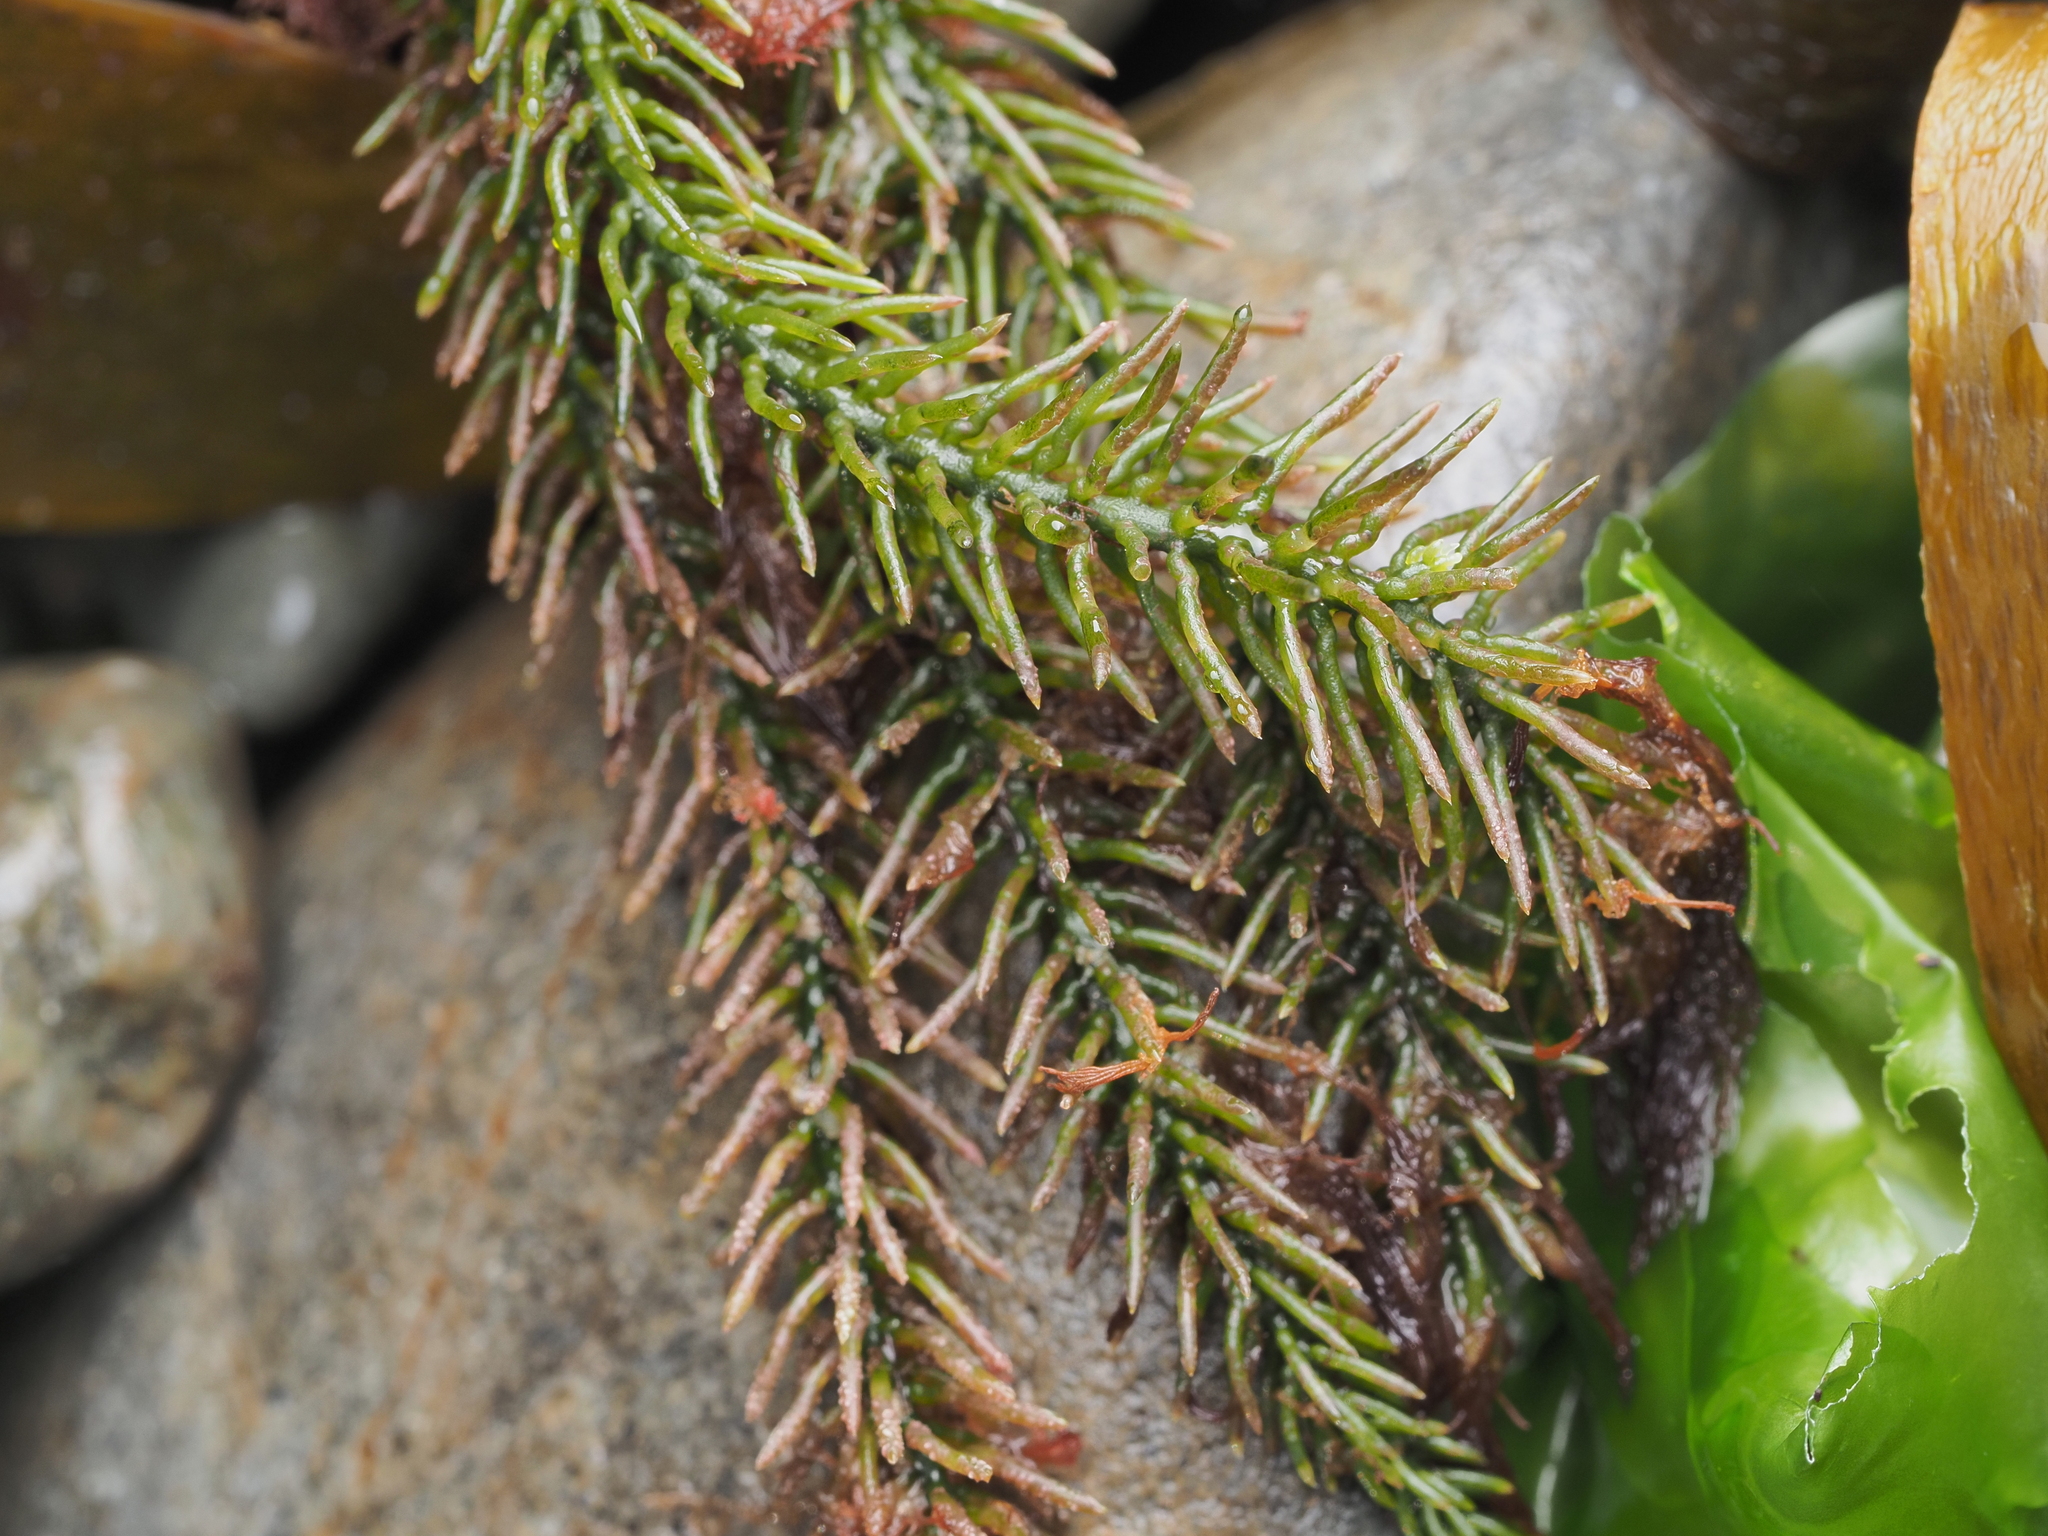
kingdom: Plantae
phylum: Chlorophyta
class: Ulvophyceae
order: Bryopsidales
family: Caulerpaceae
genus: Caulerpa
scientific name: Caulerpa brownii
